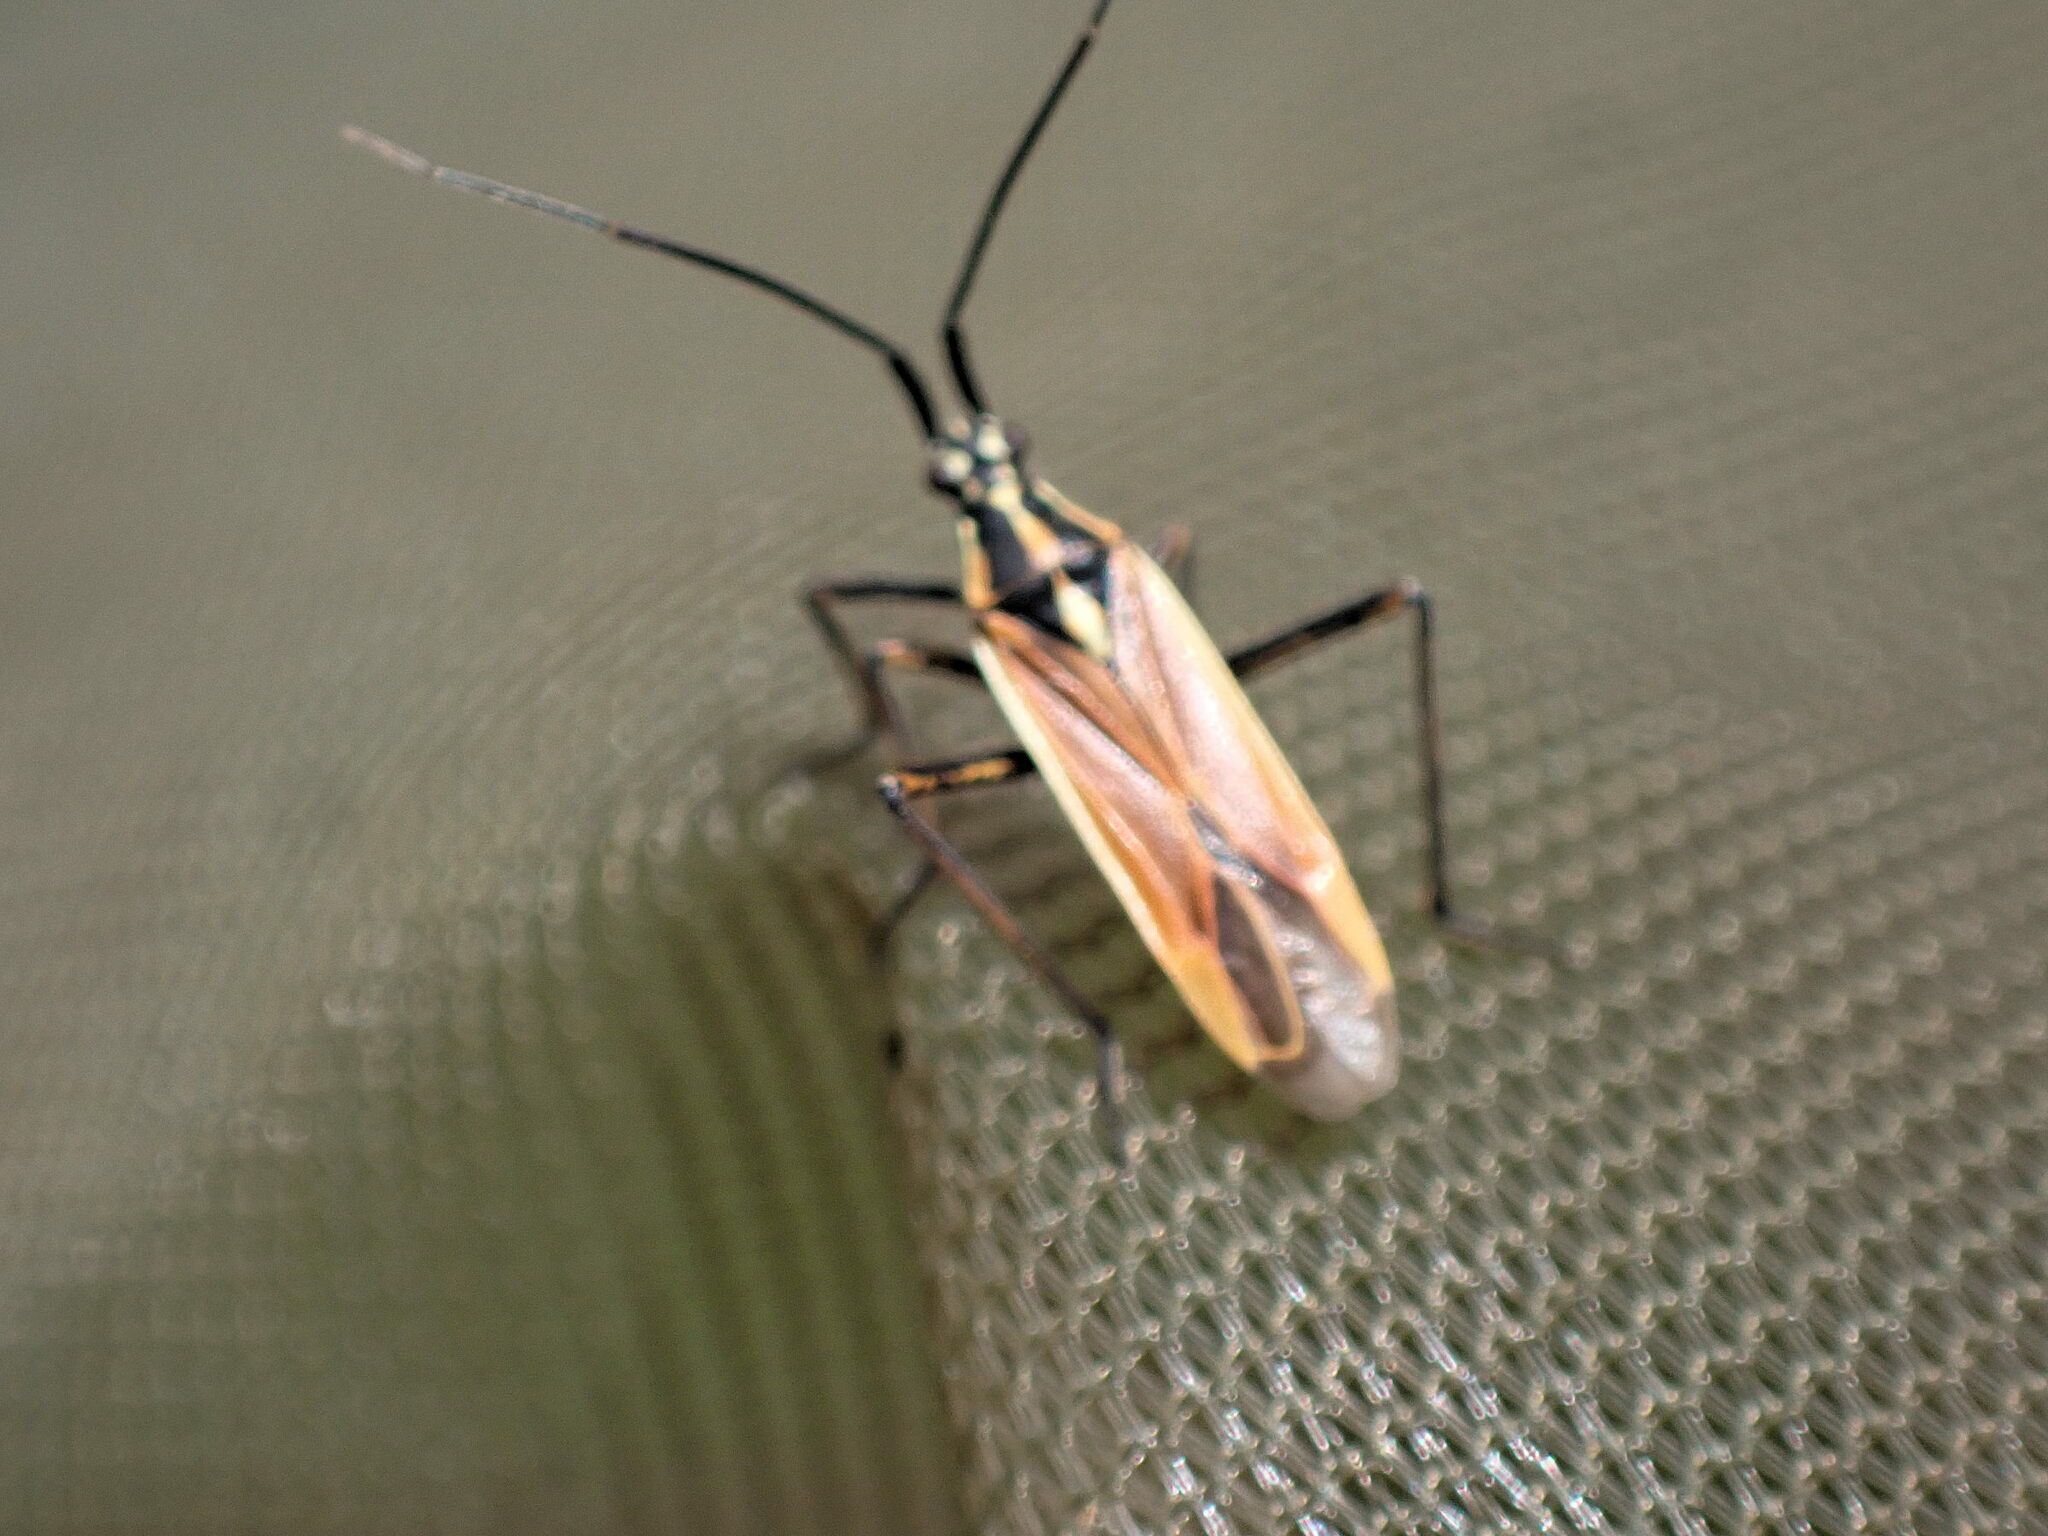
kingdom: Animalia
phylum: Arthropoda
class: Insecta
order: Hemiptera
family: Miridae
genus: Leptopterna
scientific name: Leptopterna dolabrata
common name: Meadow plant bug
